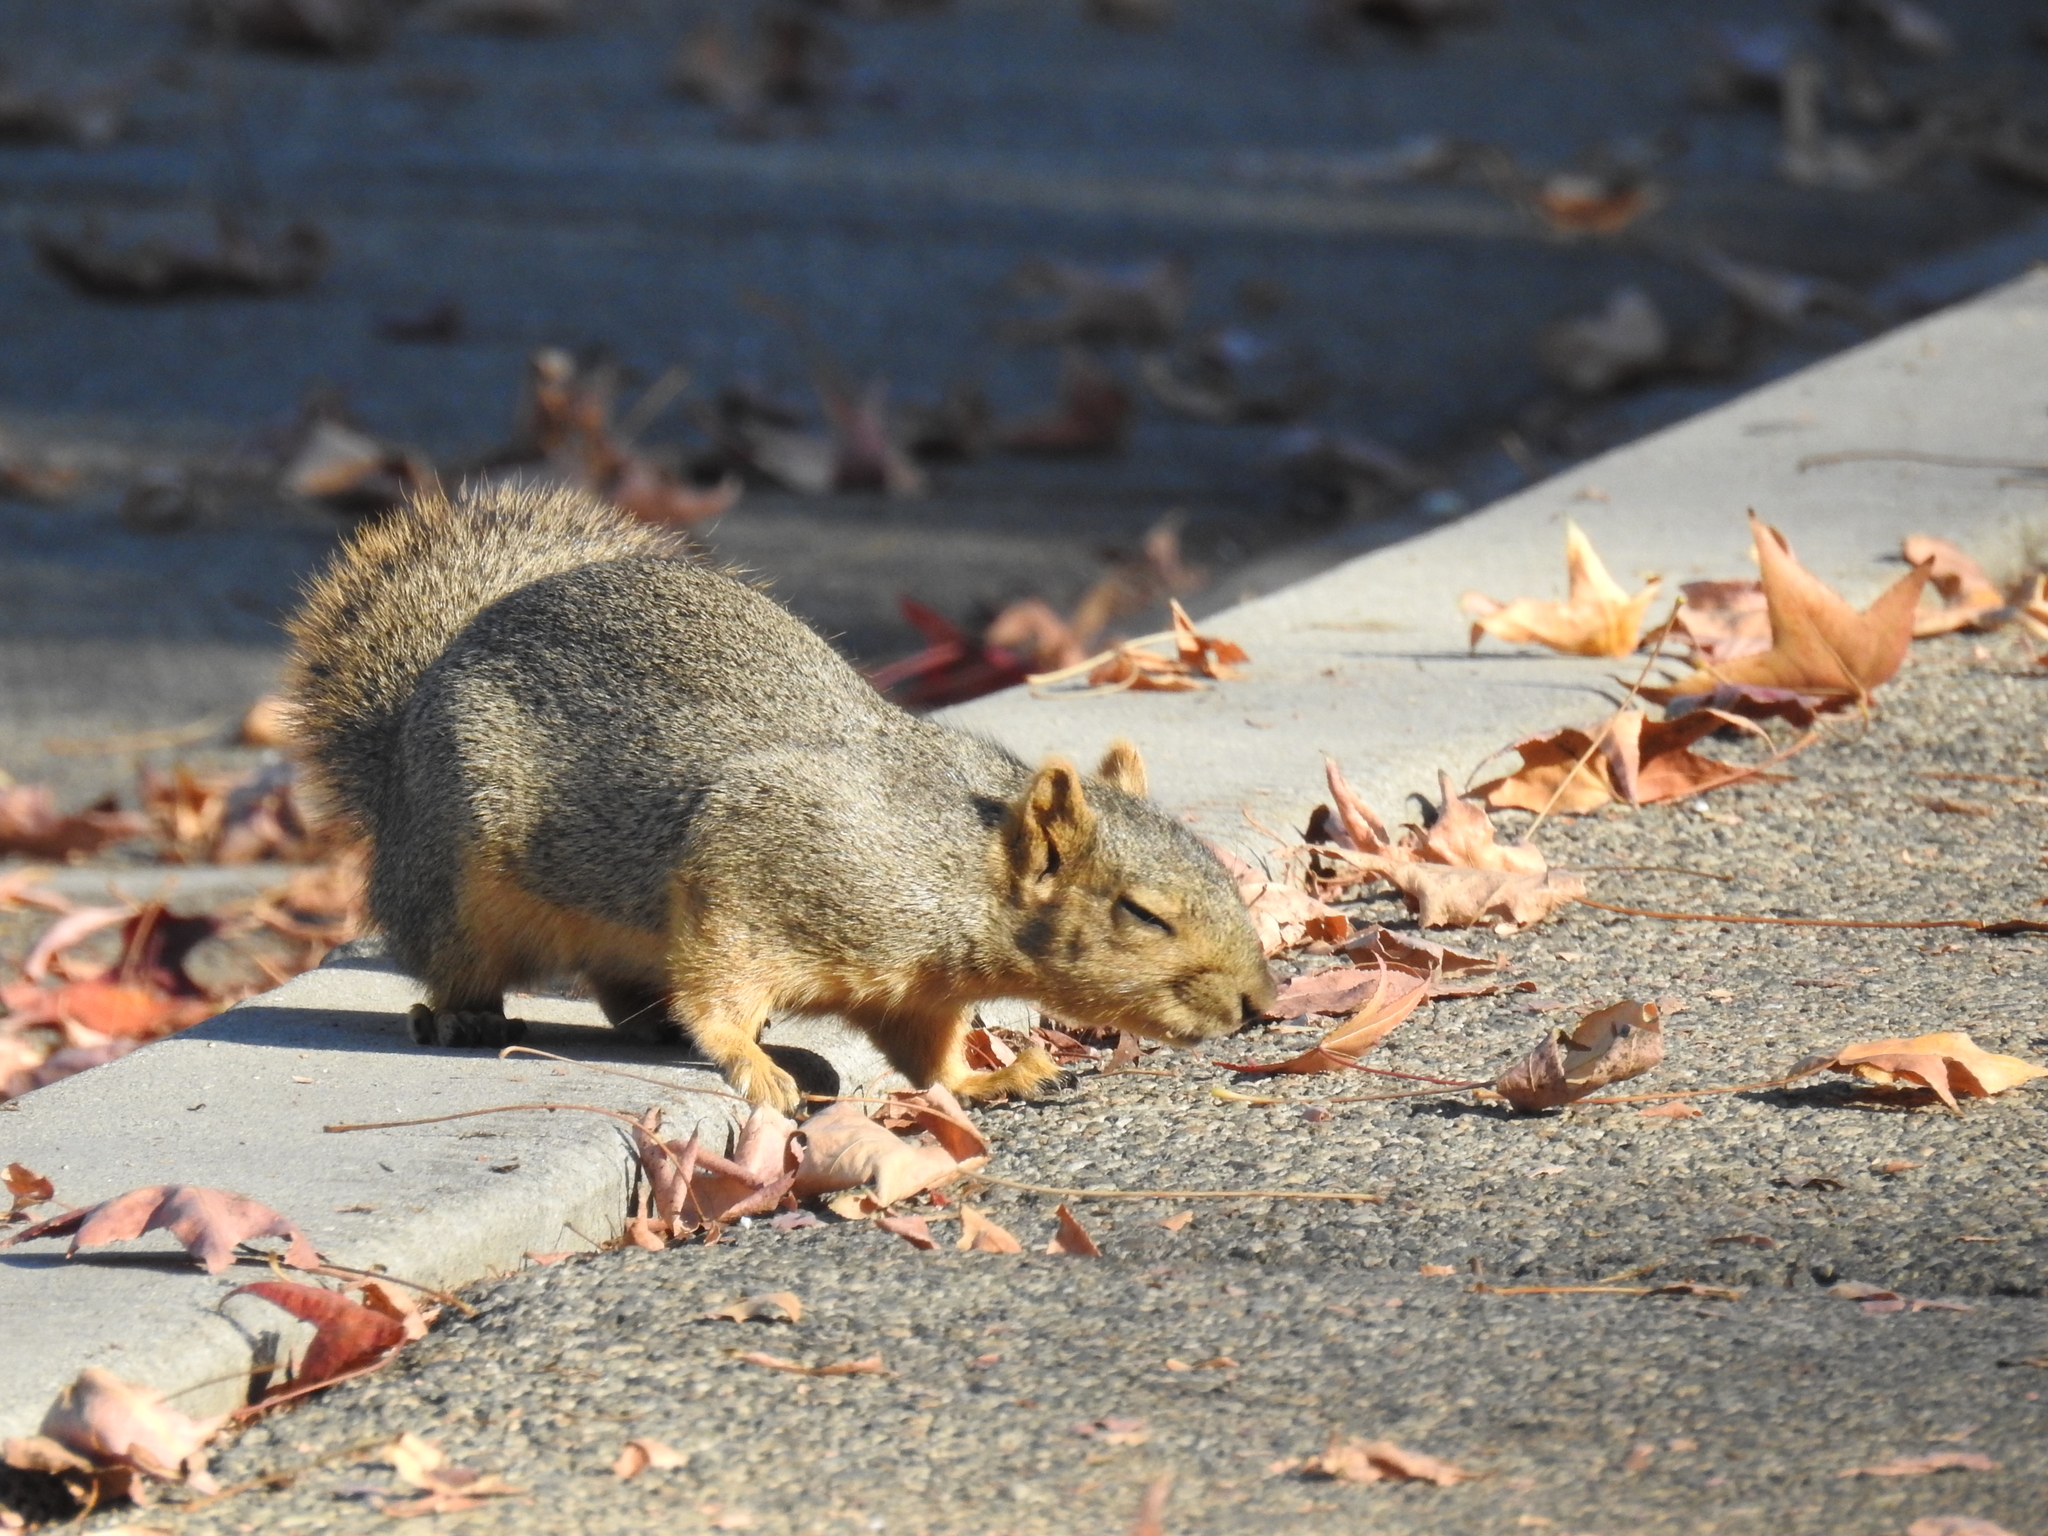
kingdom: Animalia
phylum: Chordata
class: Mammalia
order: Rodentia
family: Sciuridae
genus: Sciurus
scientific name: Sciurus niger
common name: Fox squirrel
